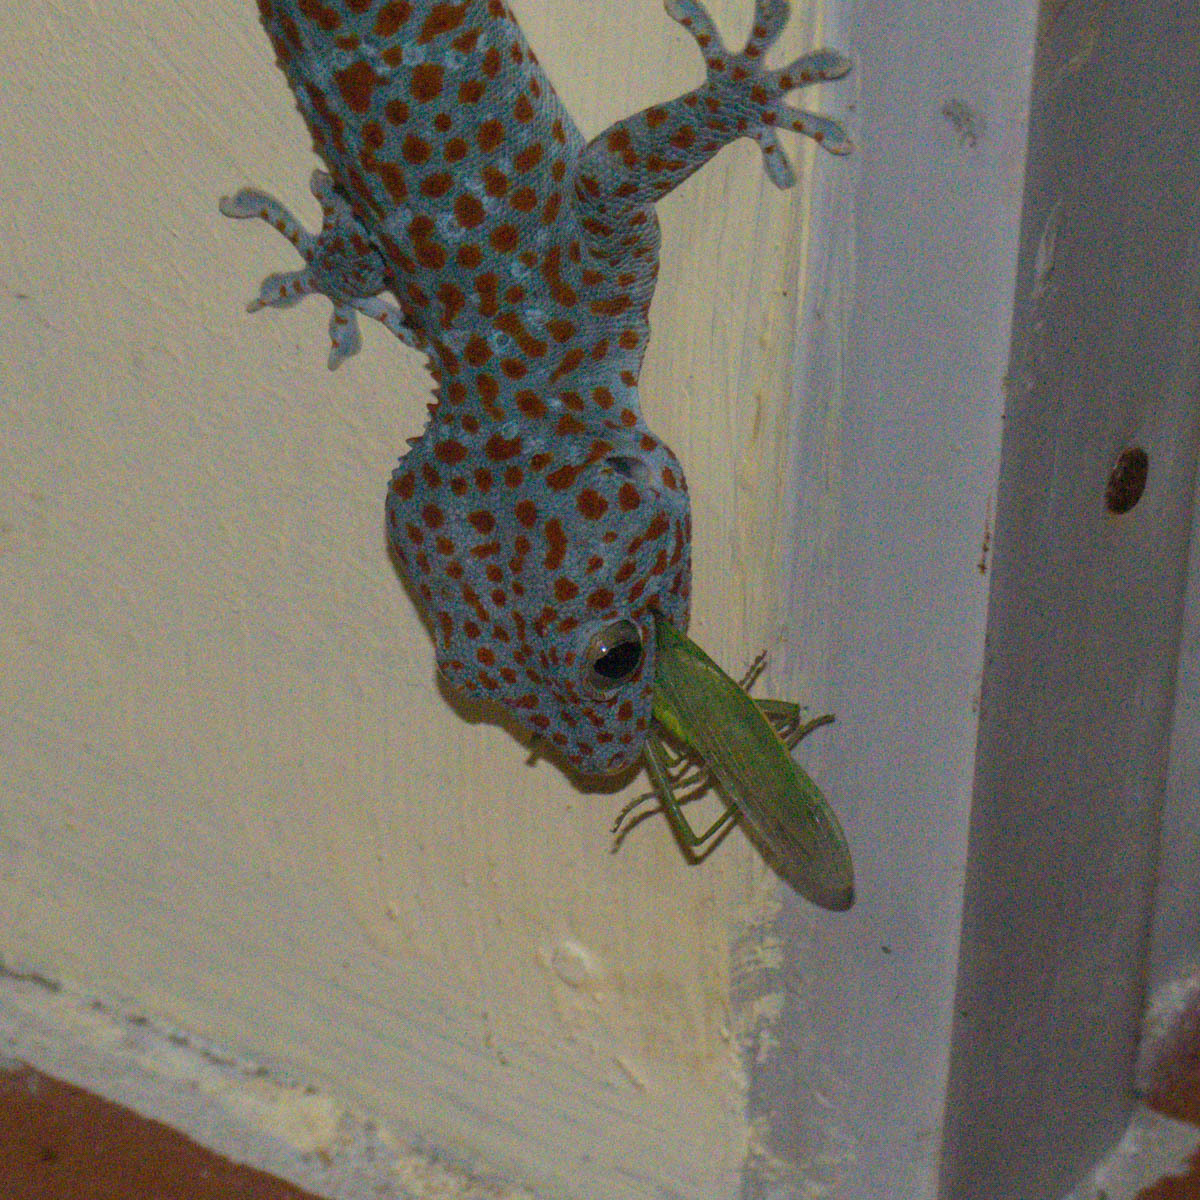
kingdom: Animalia
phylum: Chordata
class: Squamata
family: Gekkonidae
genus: Gekko
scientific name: Gekko gecko
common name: Tokay gecko
